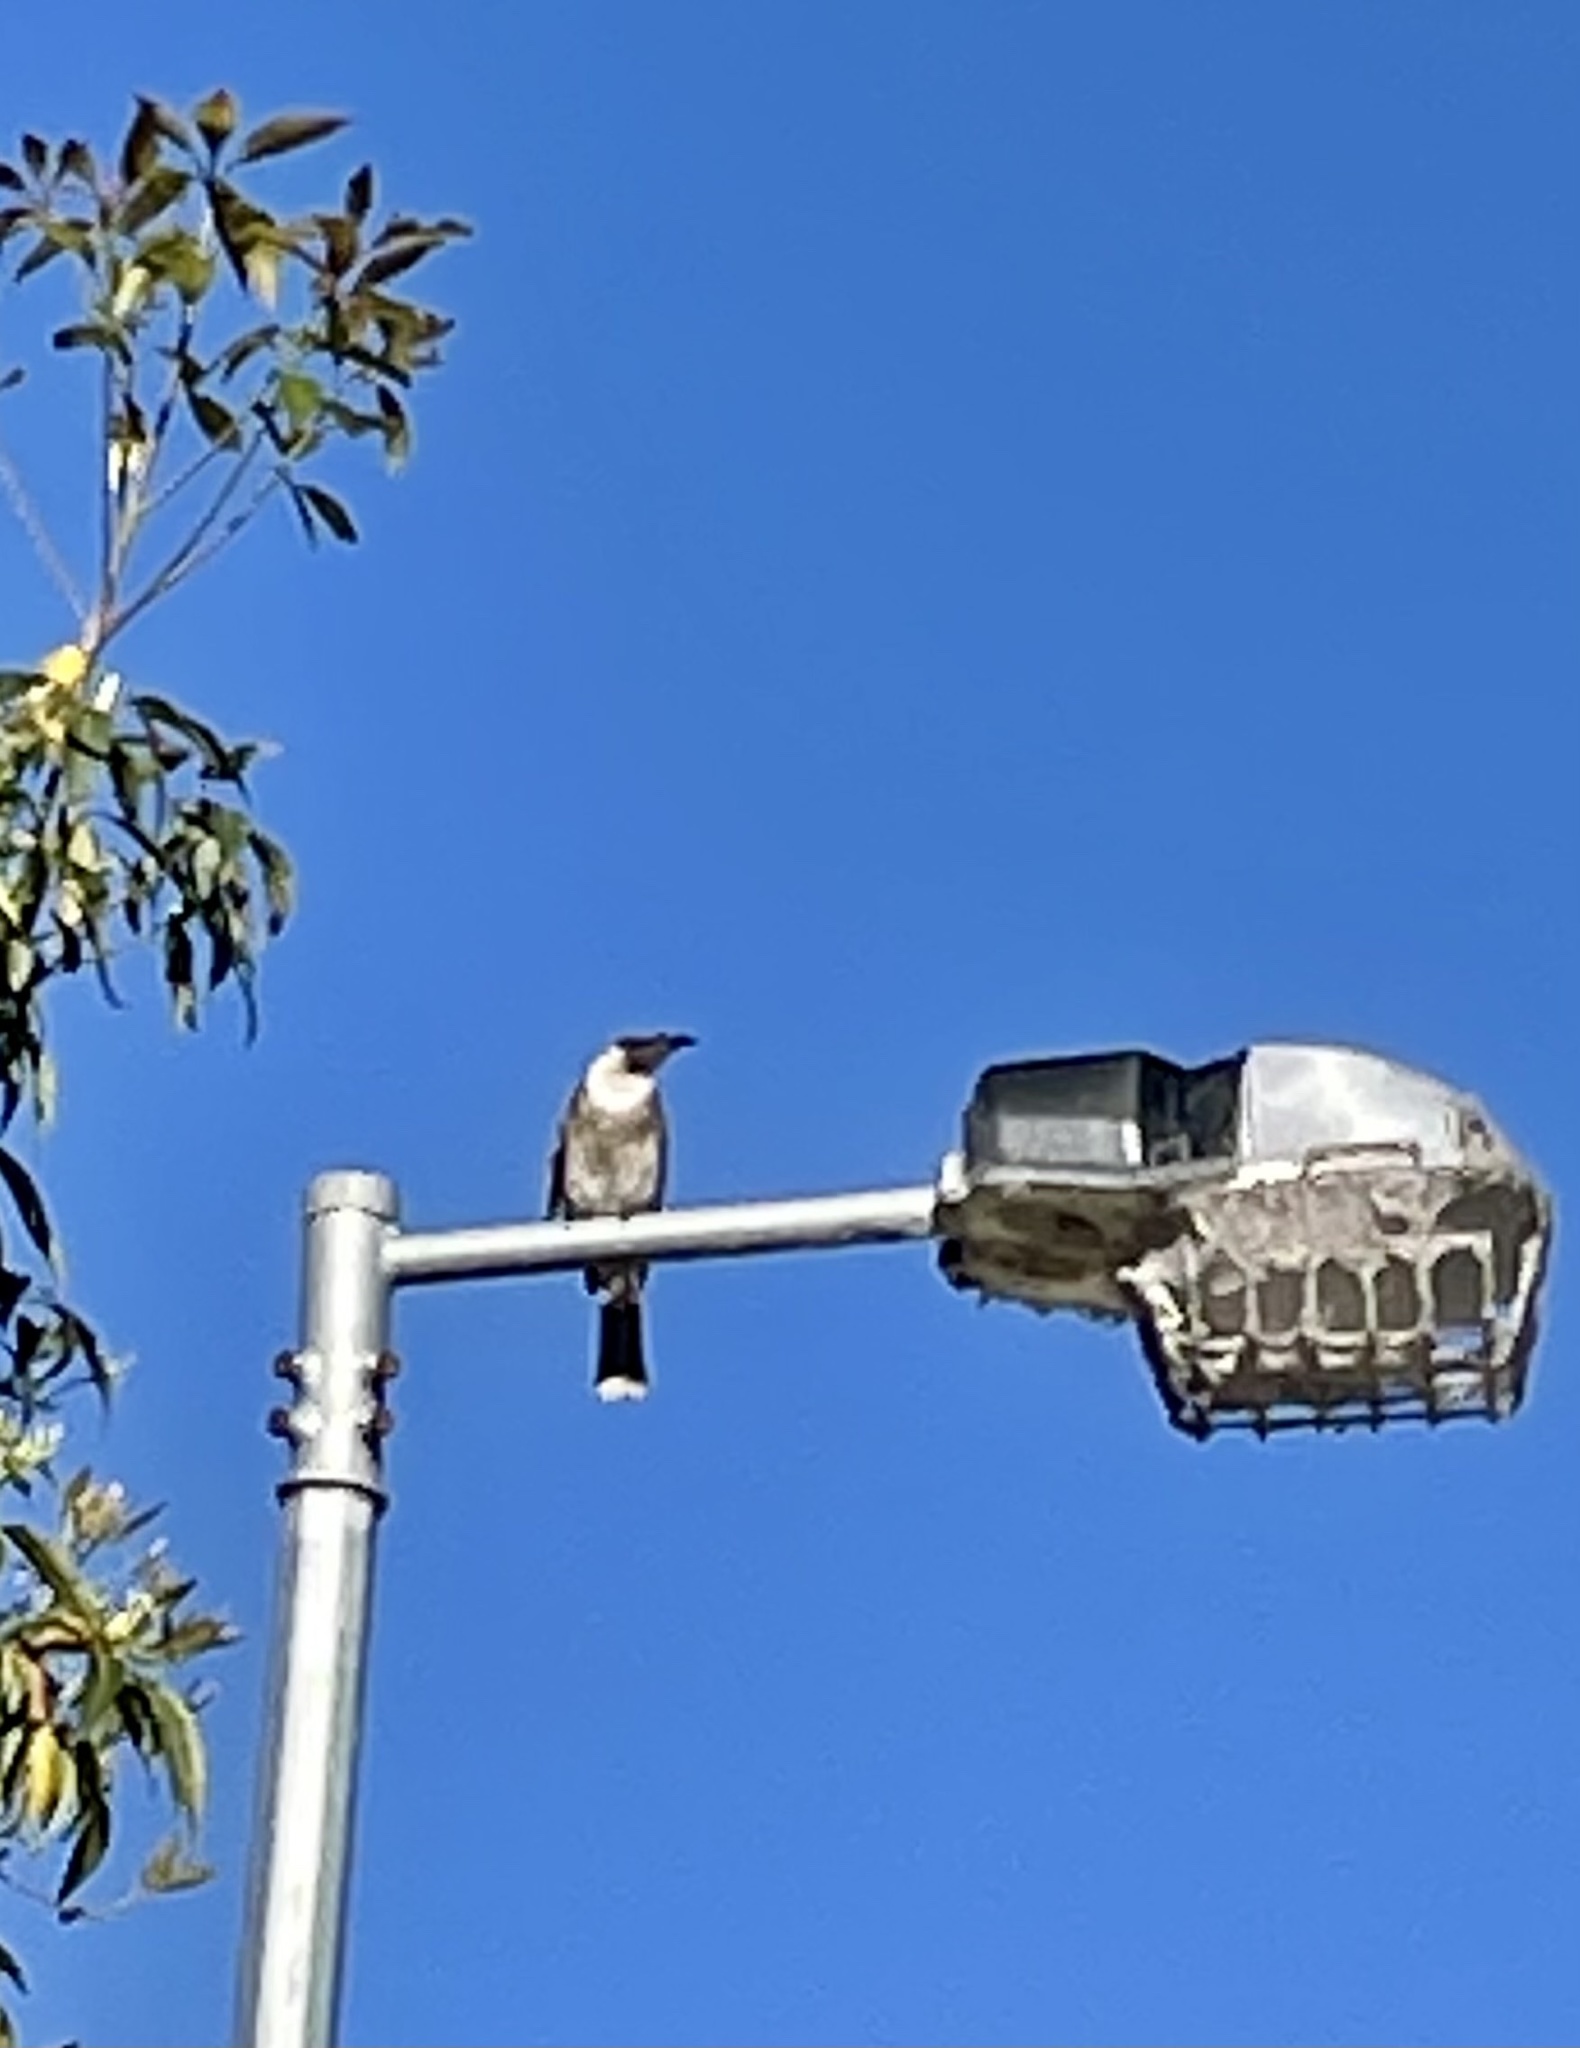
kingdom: Animalia
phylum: Chordata
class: Aves
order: Passeriformes
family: Meliphagidae
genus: Philemon
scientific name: Philemon corniculatus
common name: Noisy friarbird
